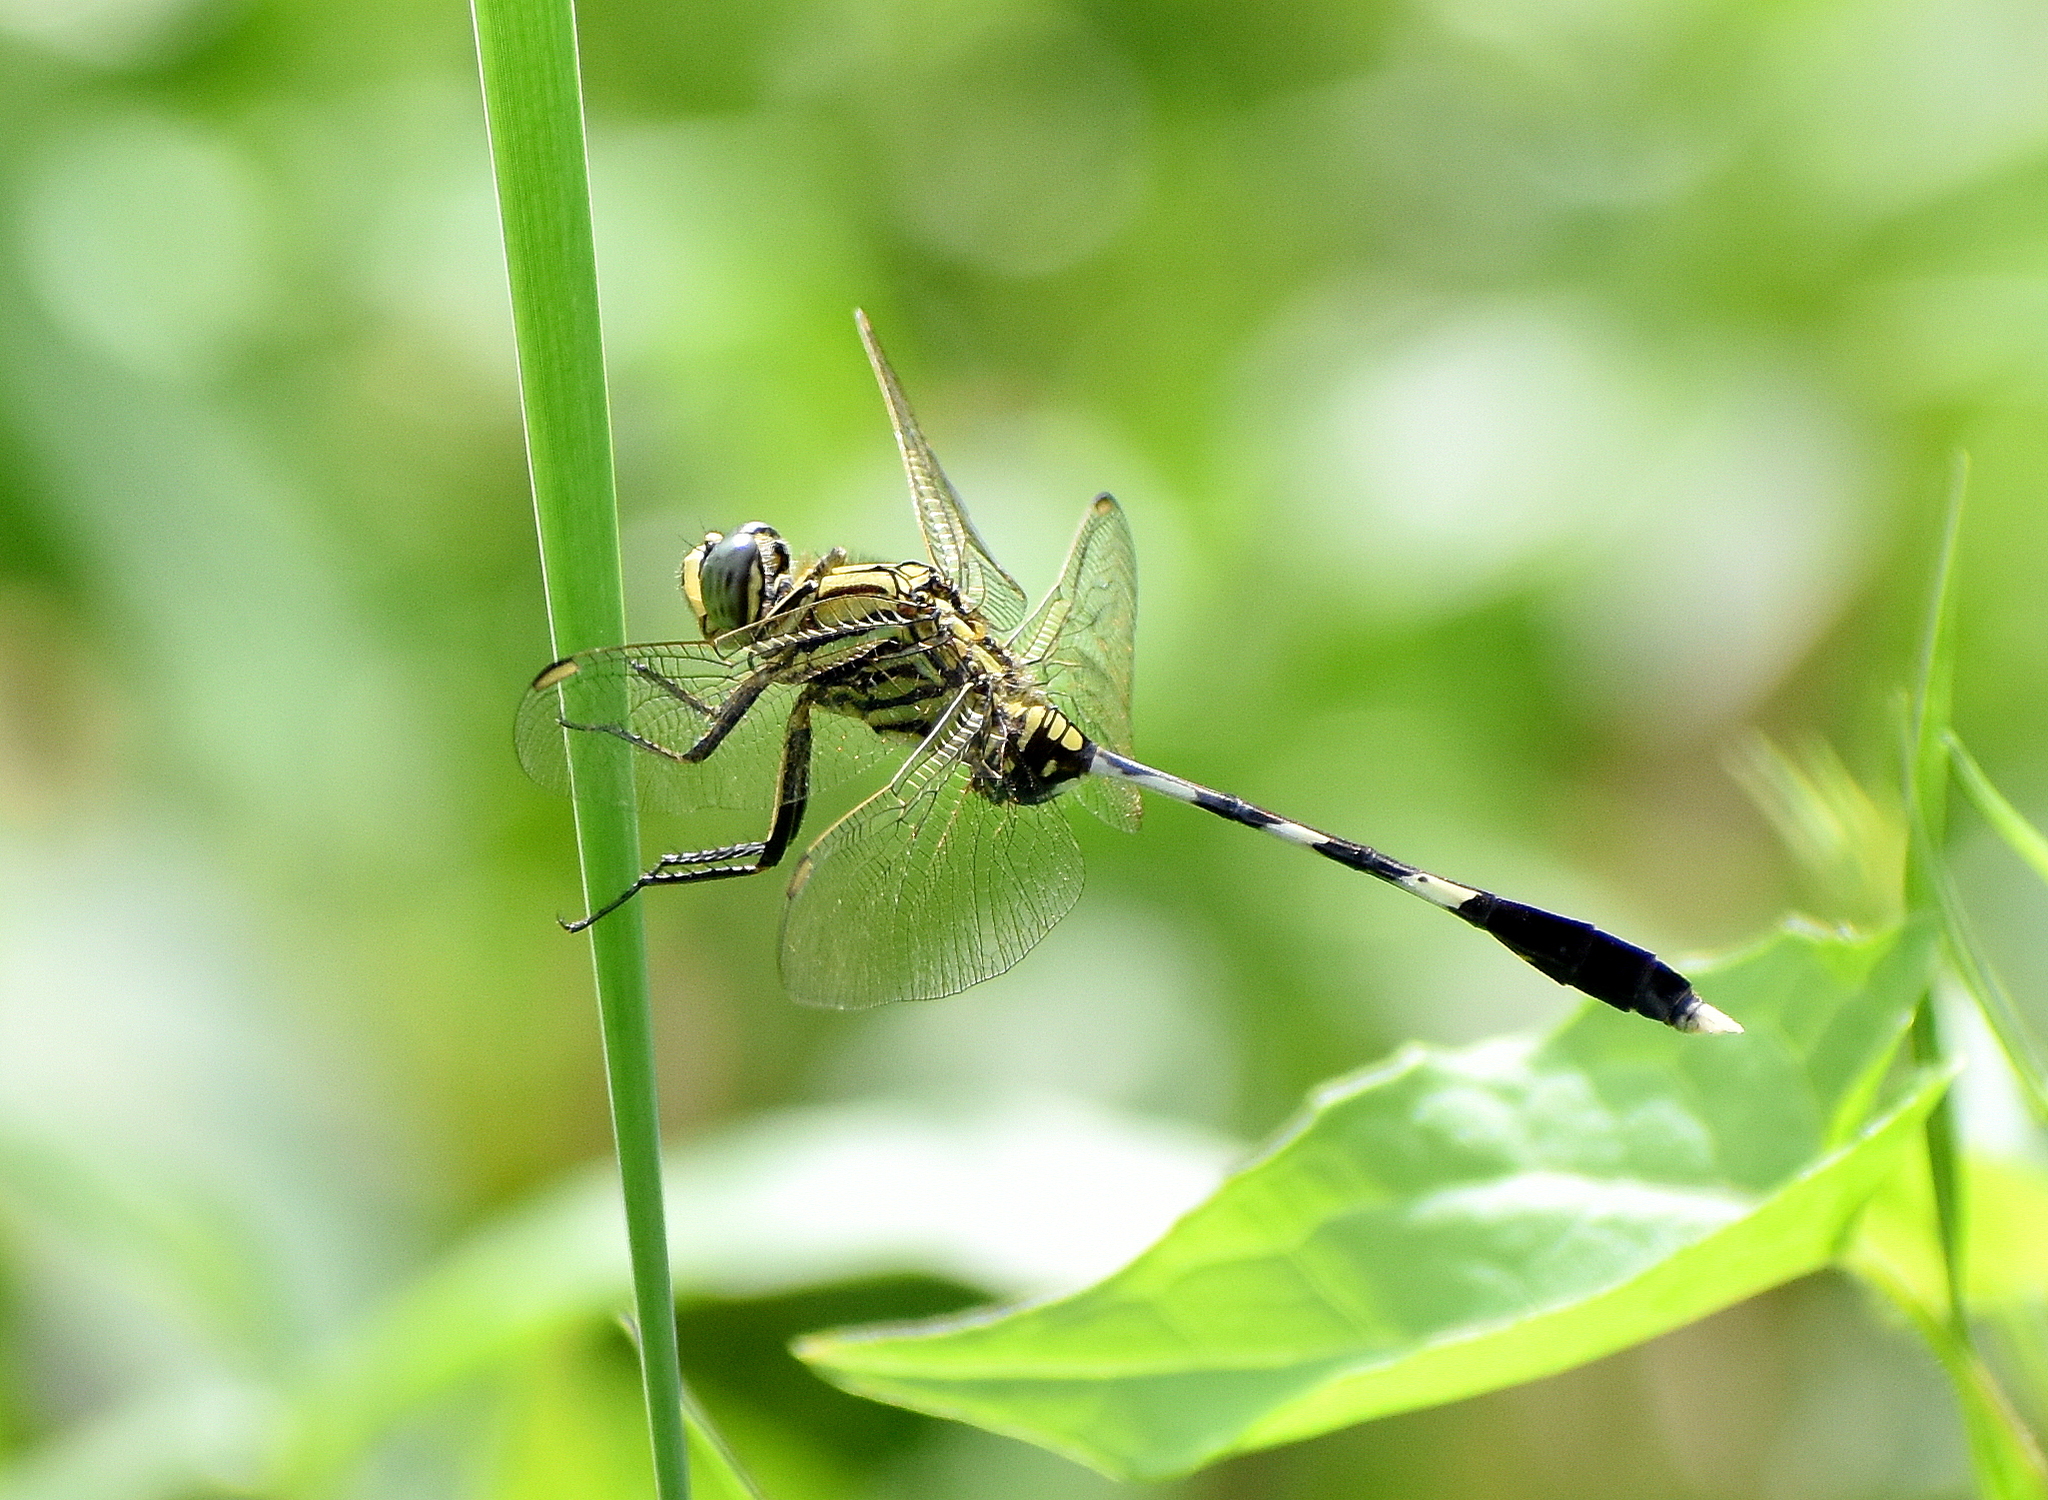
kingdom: Animalia
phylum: Arthropoda
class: Insecta
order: Odonata
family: Libellulidae
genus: Orthetrum
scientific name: Orthetrum sabina
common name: Slender skimmer
